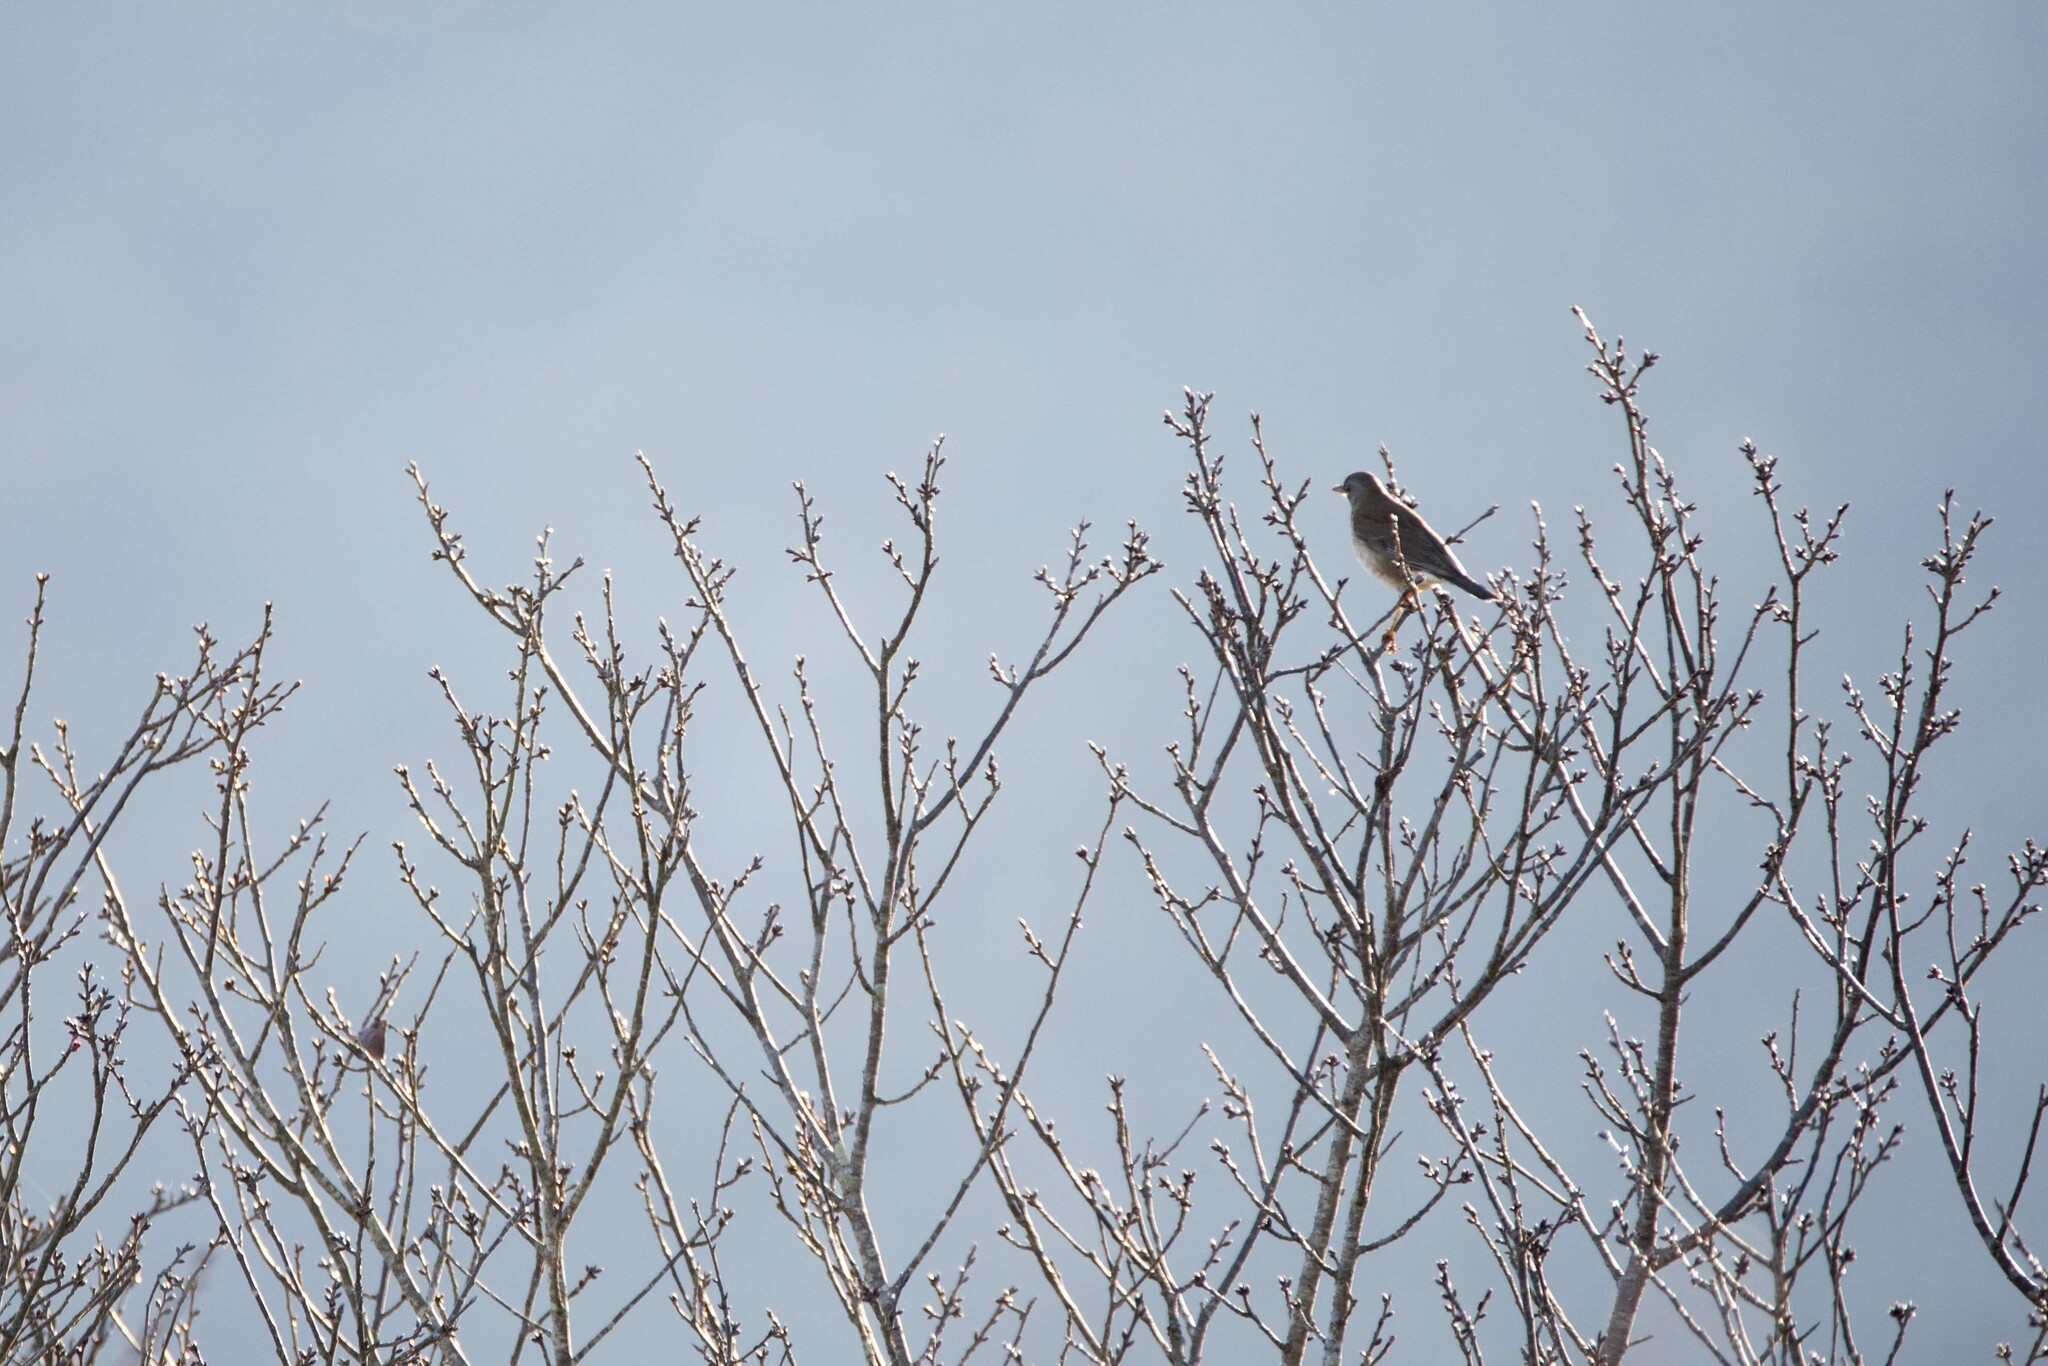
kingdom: Animalia
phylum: Chordata
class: Aves
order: Passeriformes
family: Turdidae
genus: Turdus
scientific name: Turdus pallidus
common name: Pale thrush
